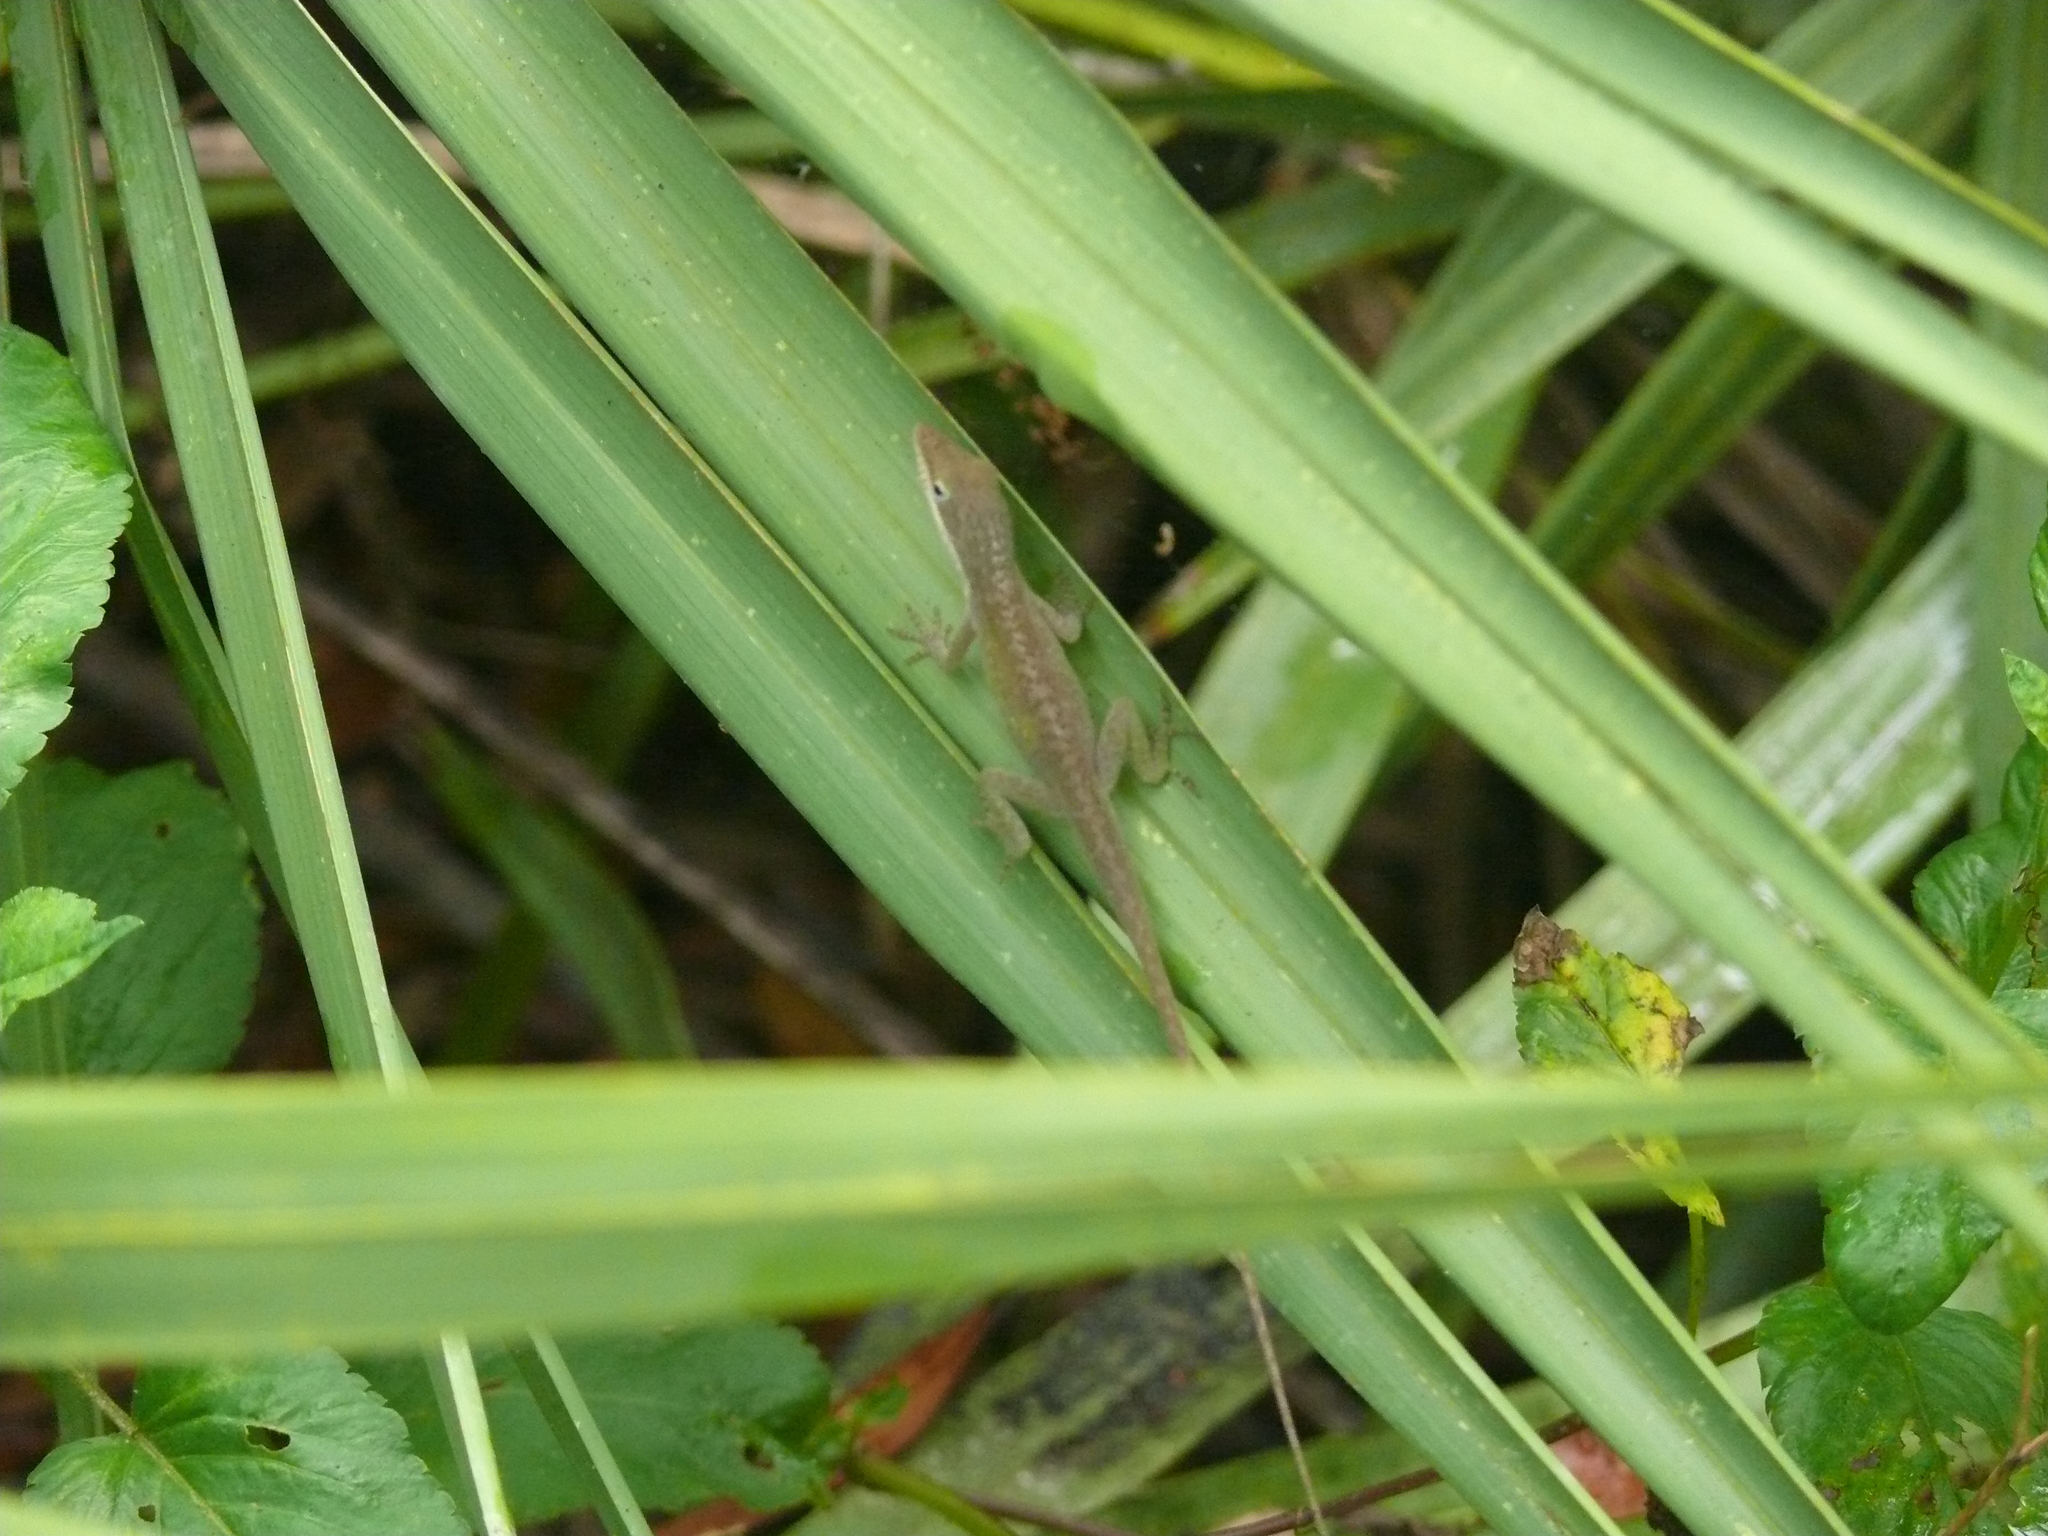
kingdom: Animalia
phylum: Chordata
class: Squamata
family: Dactyloidae
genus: Anolis
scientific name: Anolis carolinensis
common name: Green anole
